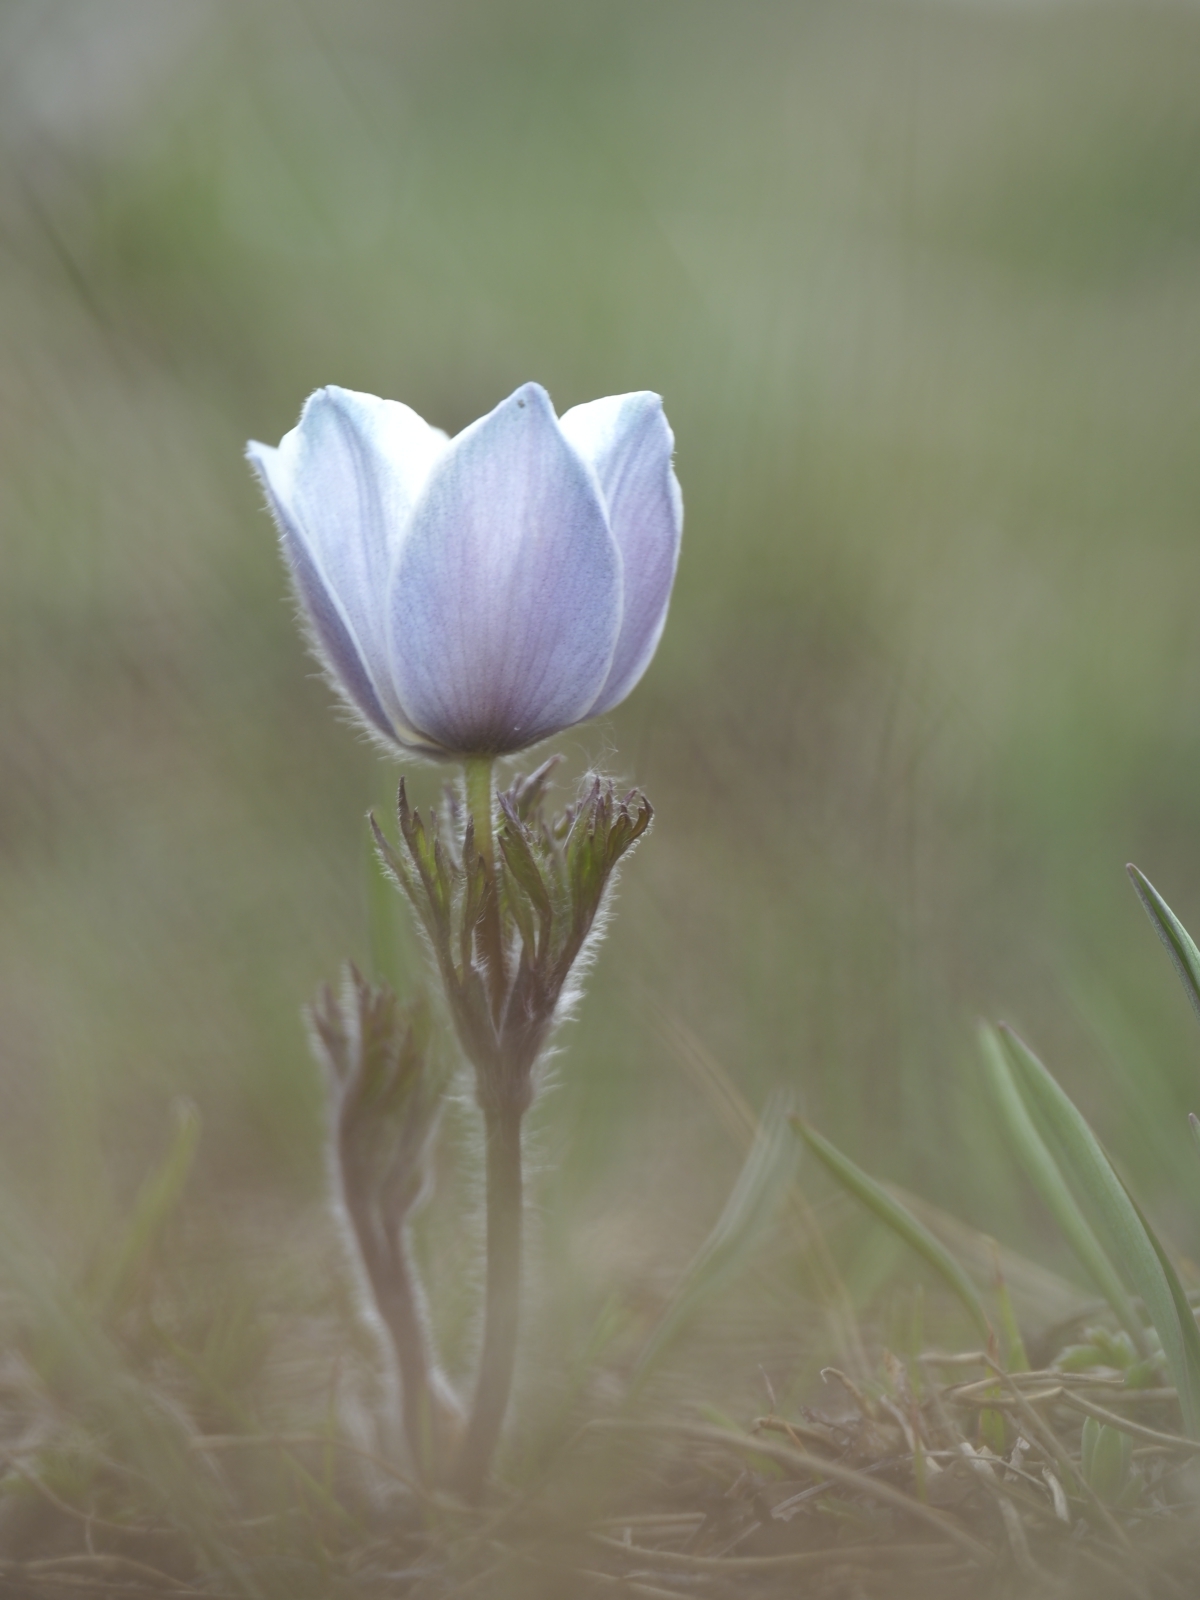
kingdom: Plantae
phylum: Tracheophyta
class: Magnoliopsida
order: Ranunculales
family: Ranunculaceae
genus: Pulsatilla
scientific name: Pulsatilla alpina
